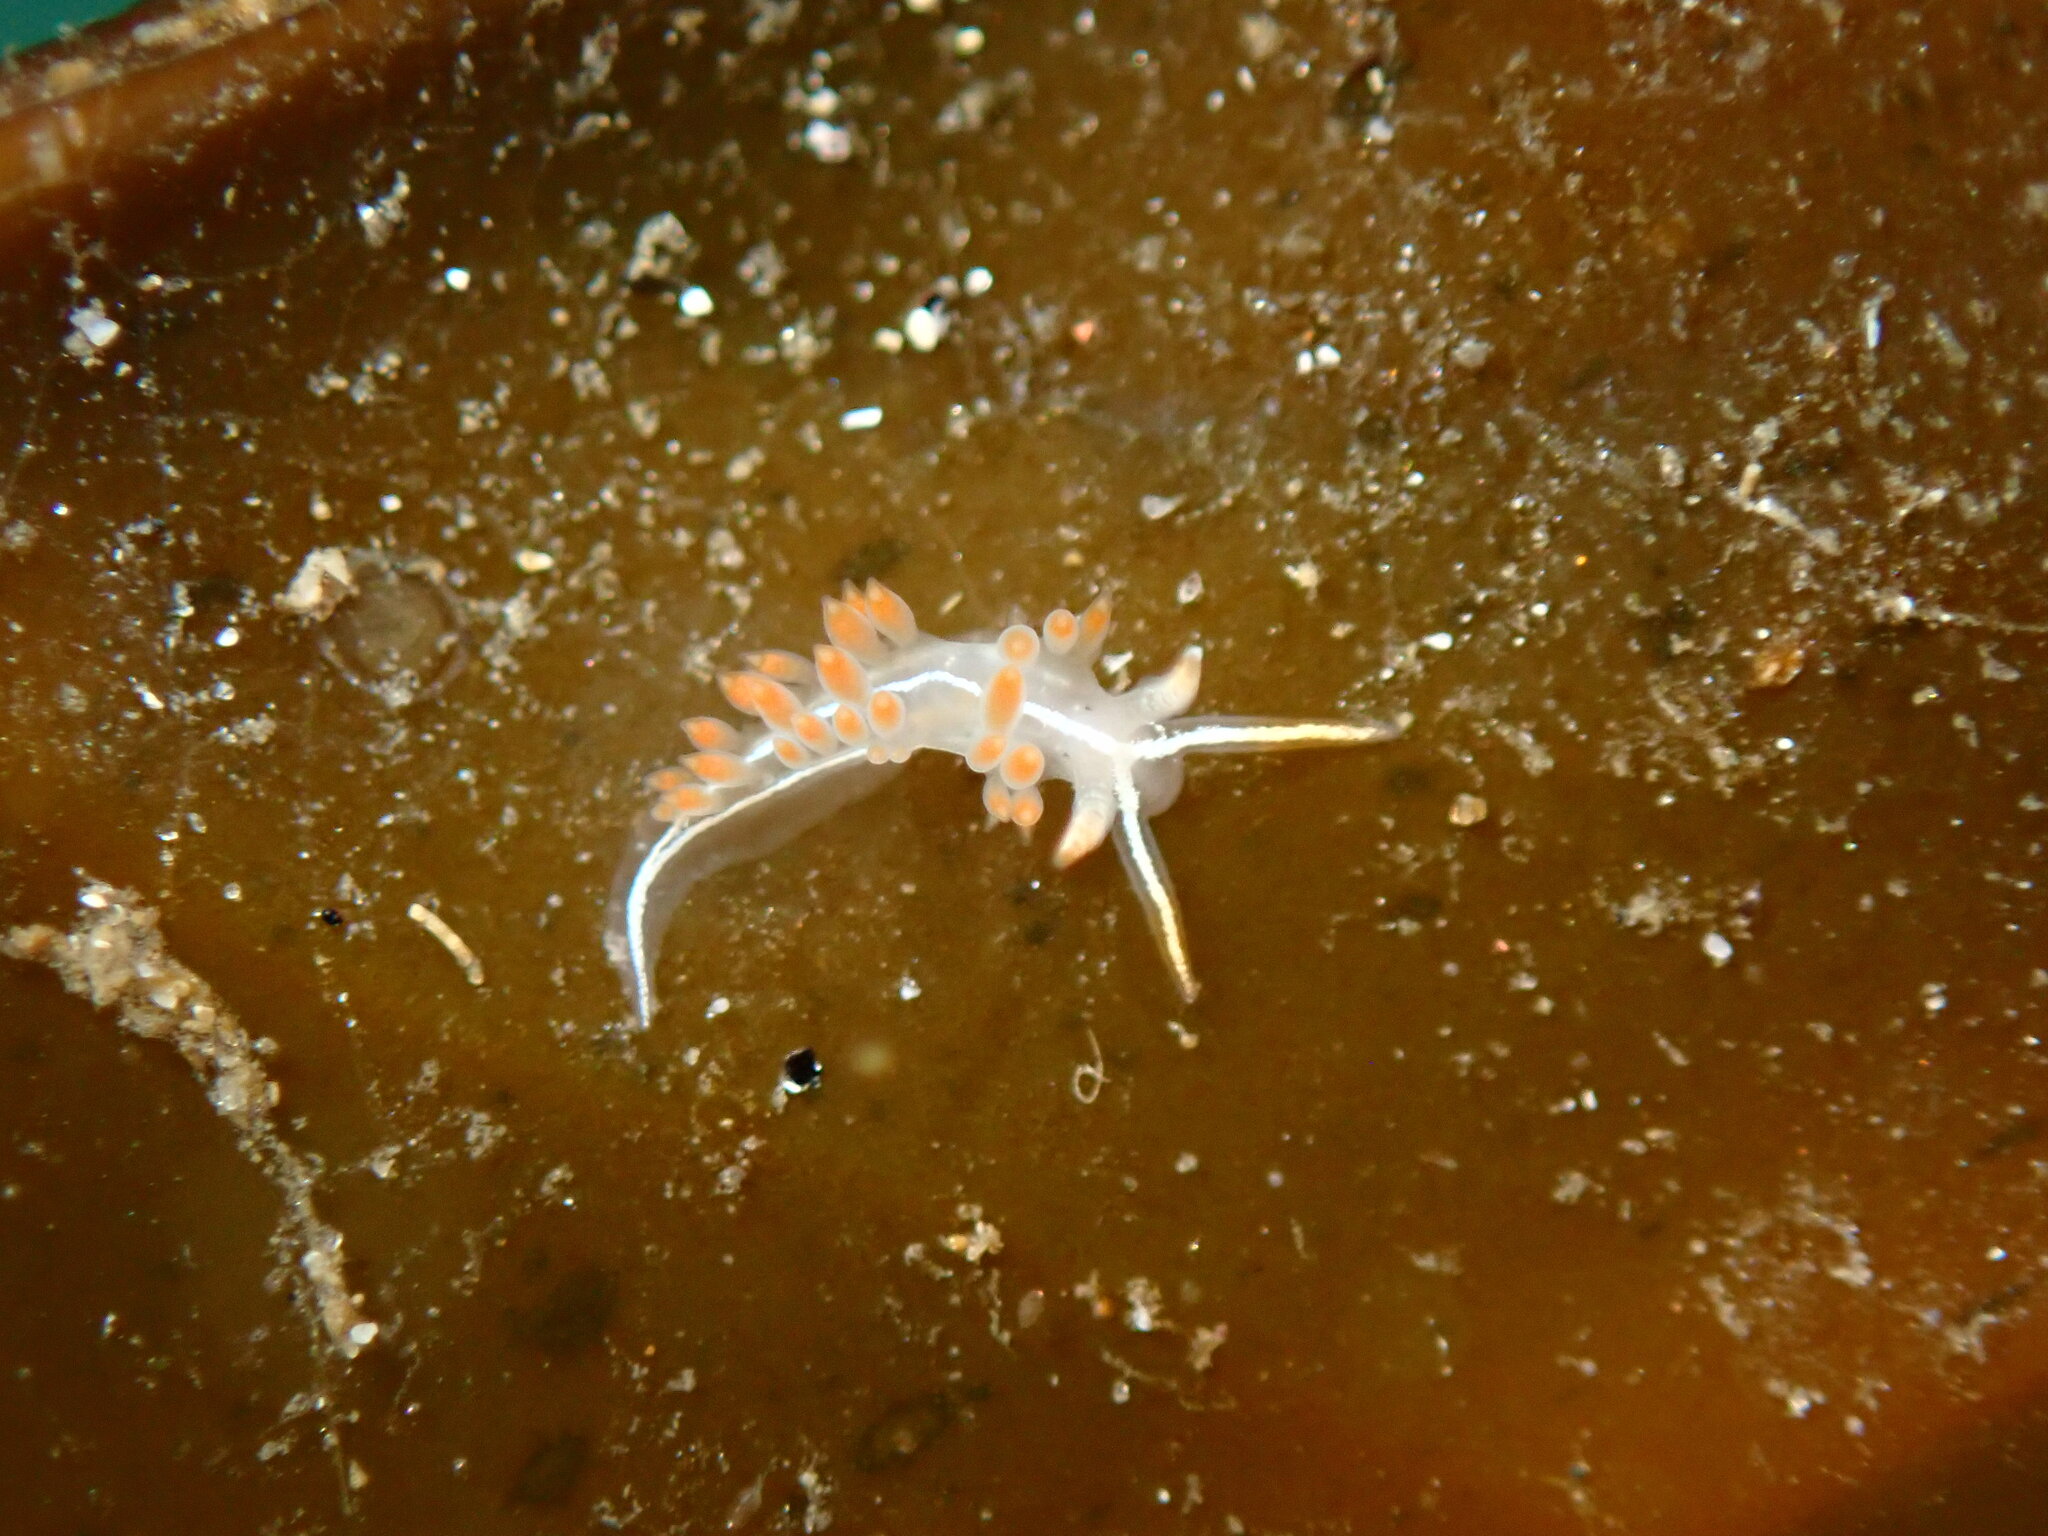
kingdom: Animalia
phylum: Mollusca
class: Gastropoda
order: Nudibranchia
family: Coryphellidae
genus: Coryphella
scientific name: Coryphella trilineata
